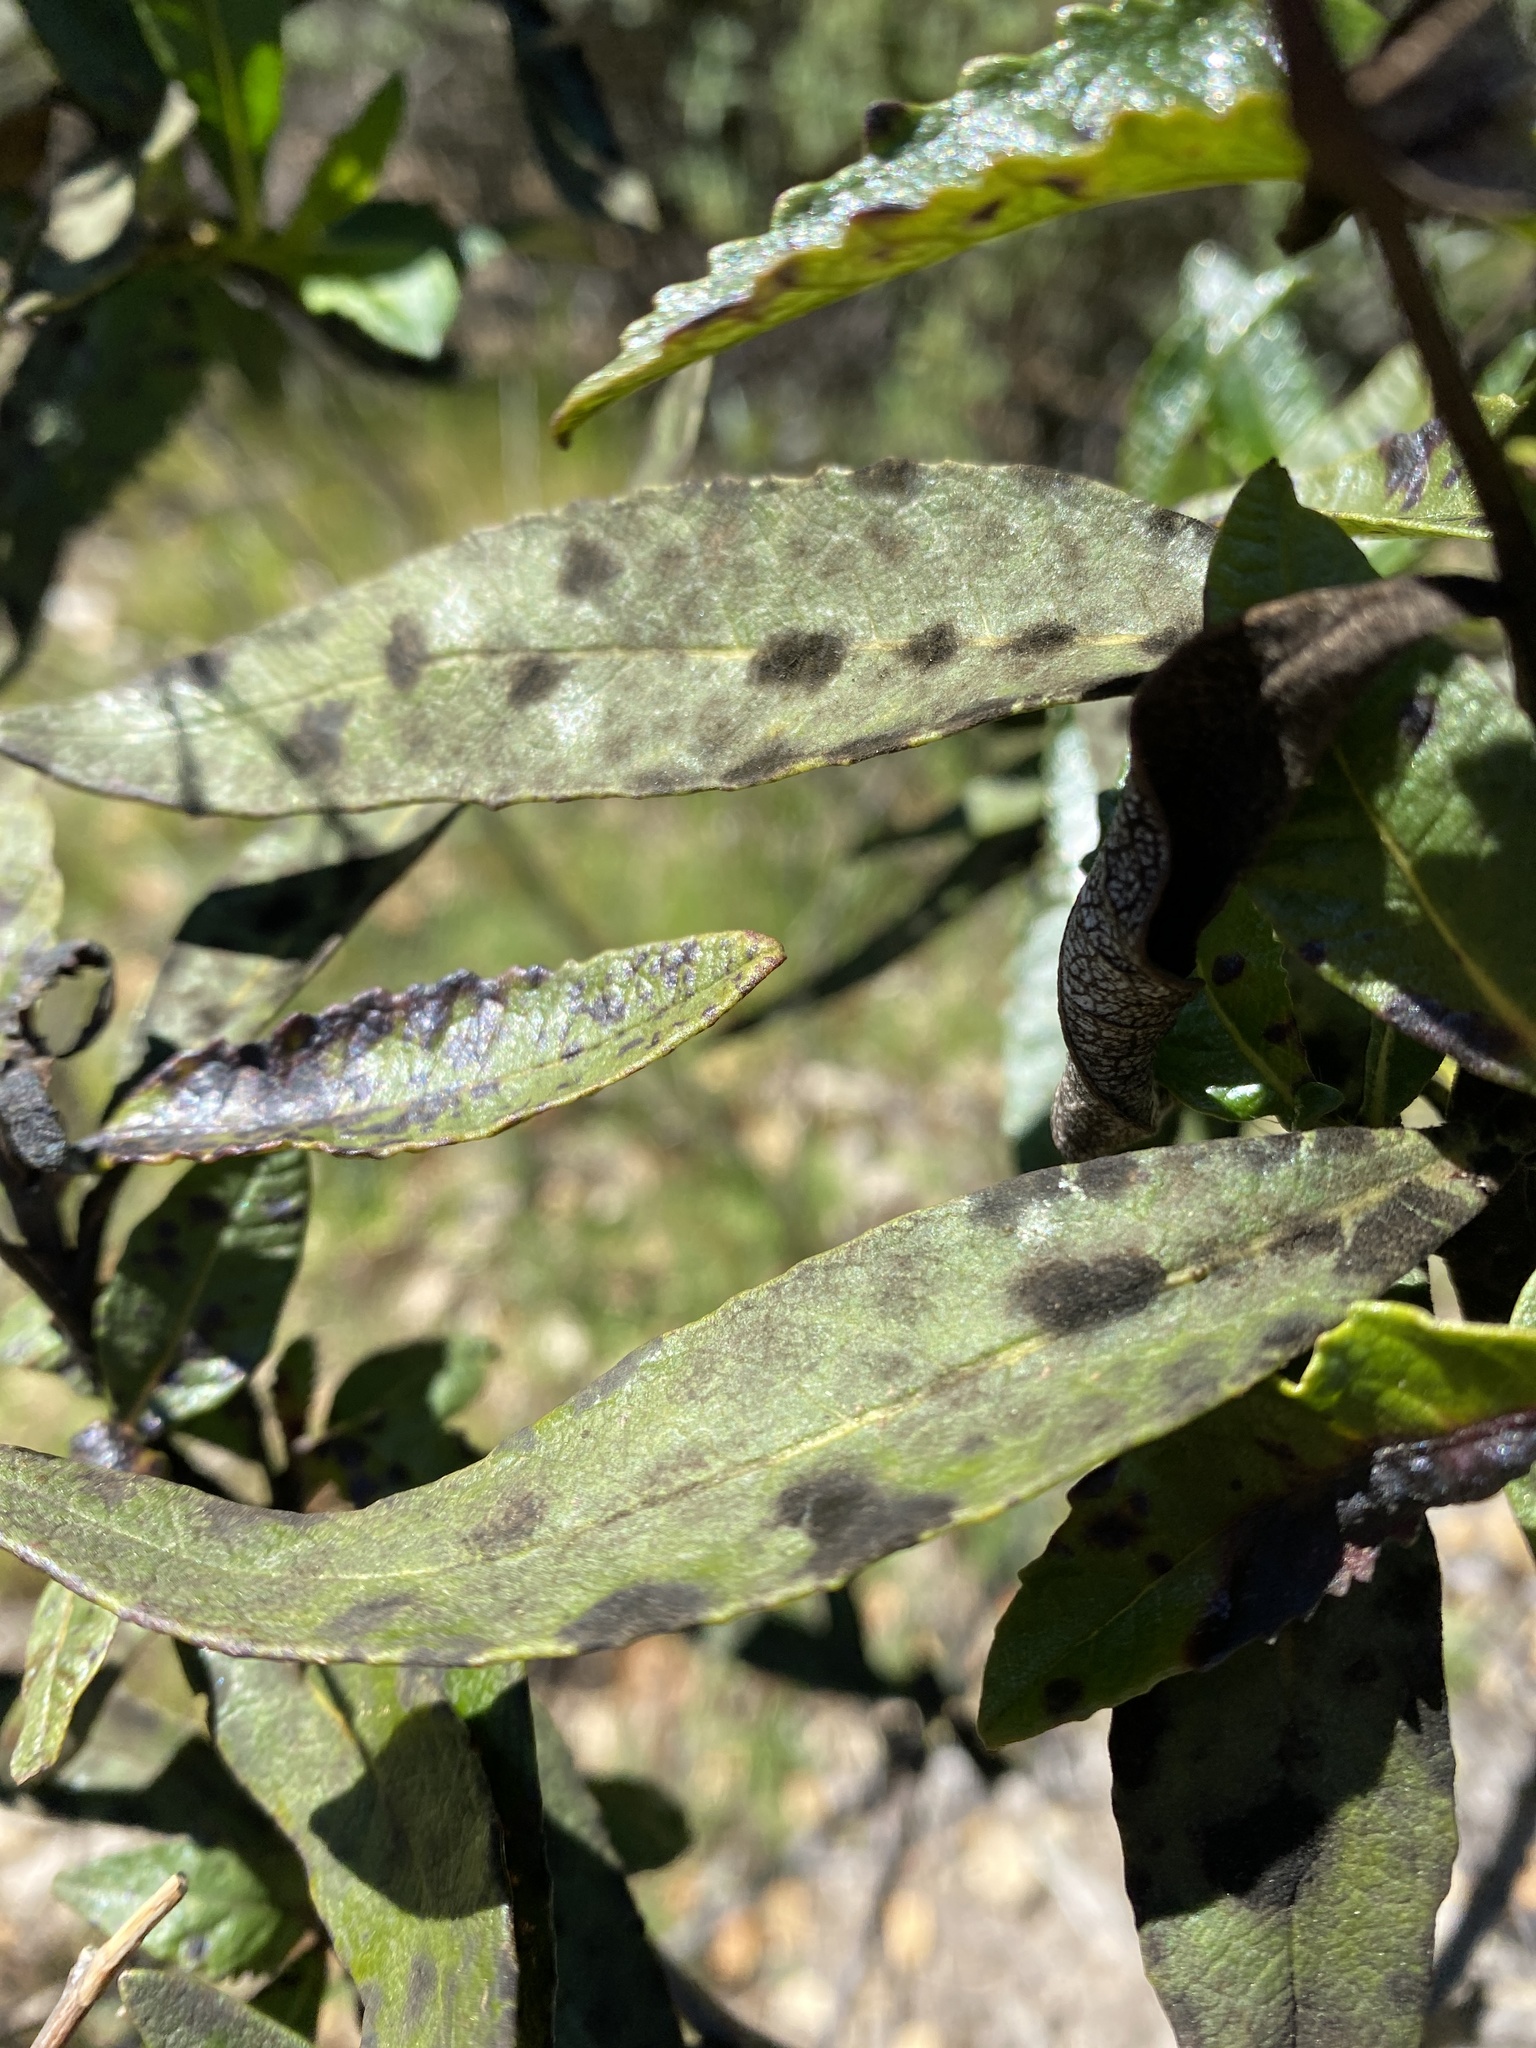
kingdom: Plantae
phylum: Tracheophyta
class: Magnoliopsida
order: Boraginales
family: Namaceae
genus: Eriodictyon
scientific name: Eriodictyon californicum
